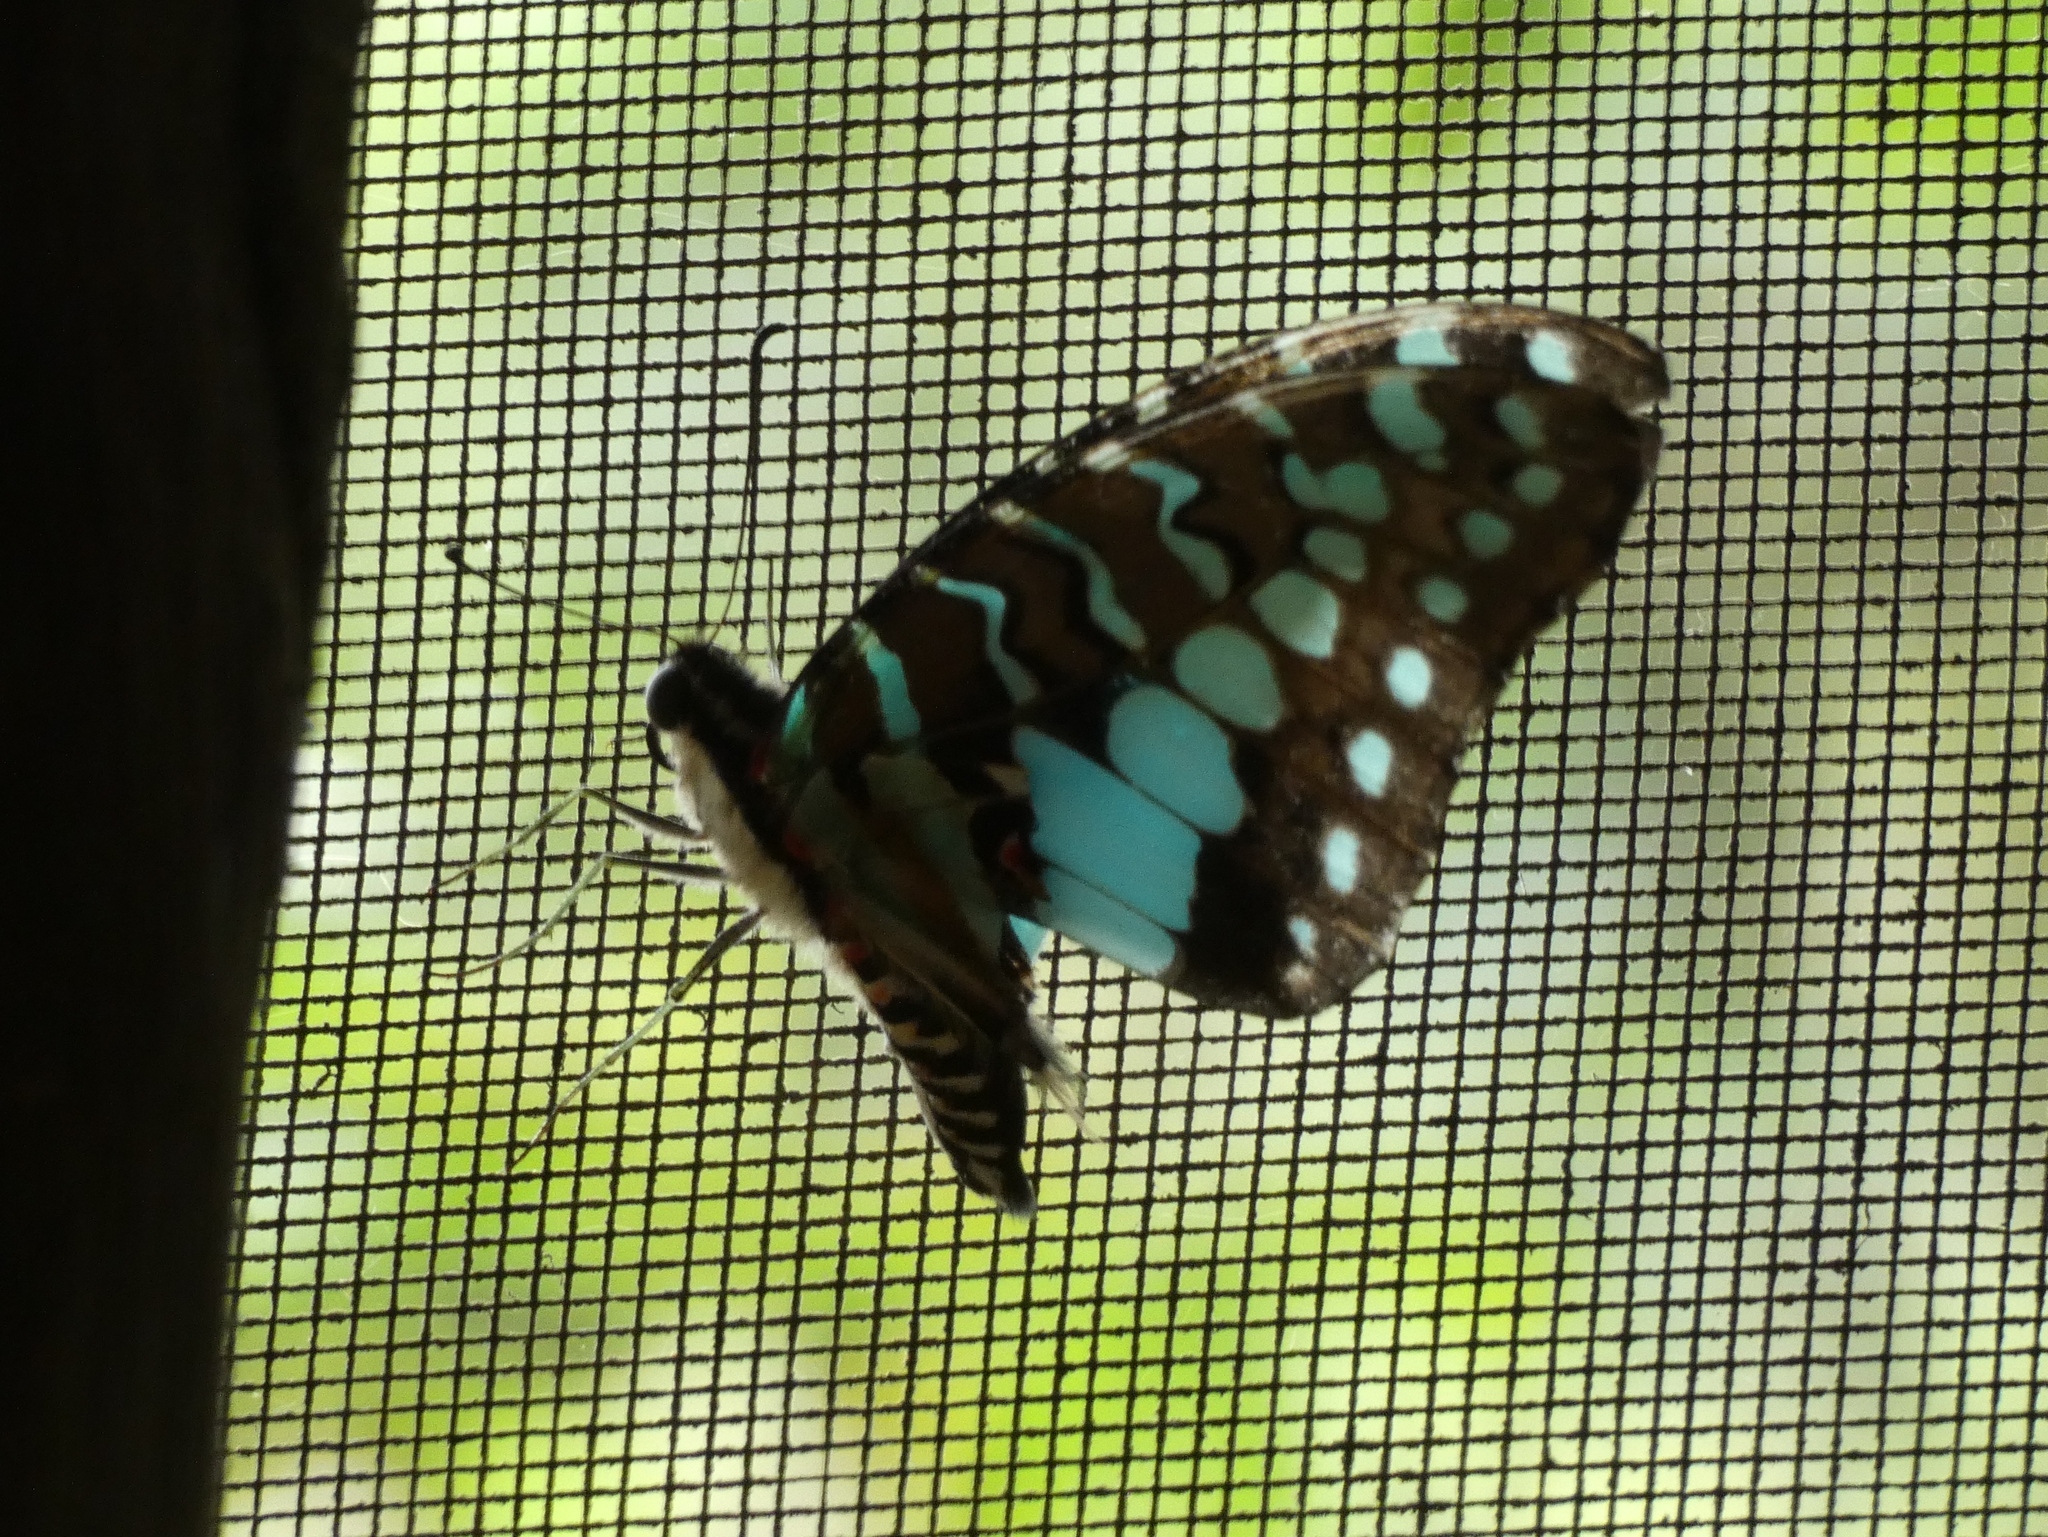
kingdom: Animalia
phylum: Arthropoda
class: Insecta
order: Lepidoptera
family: Papilionidae
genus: Graphium
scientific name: Graphium antheus
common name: Large striped swordtail
